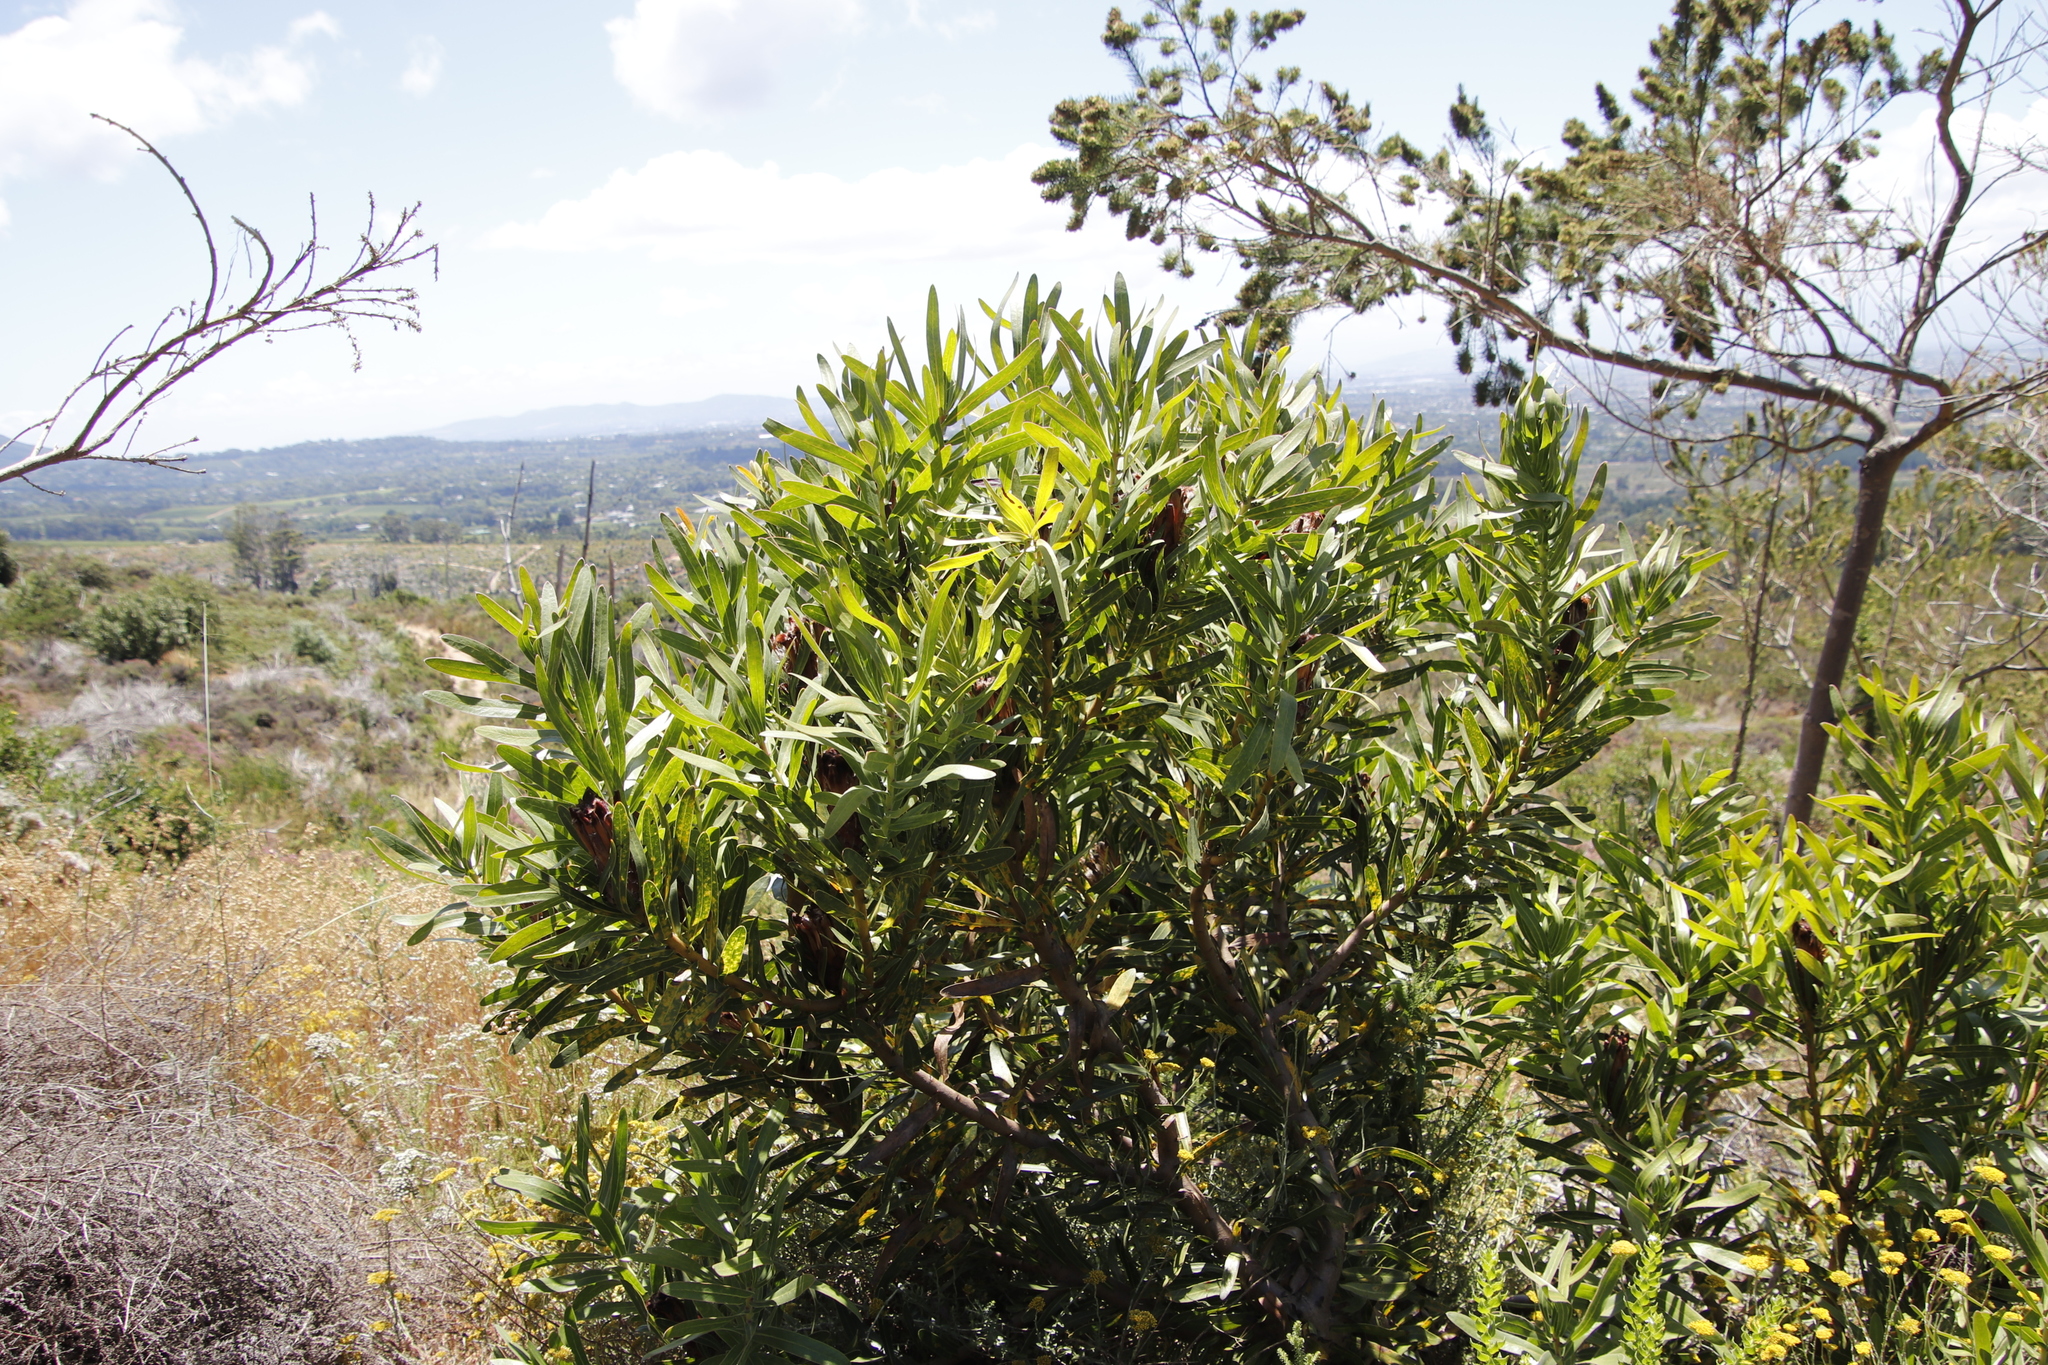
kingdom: Plantae
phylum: Tracheophyta
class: Magnoliopsida
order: Proteales
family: Proteaceae
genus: Protea
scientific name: Protea lepidocarpodendron
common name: Black-bearded protea
